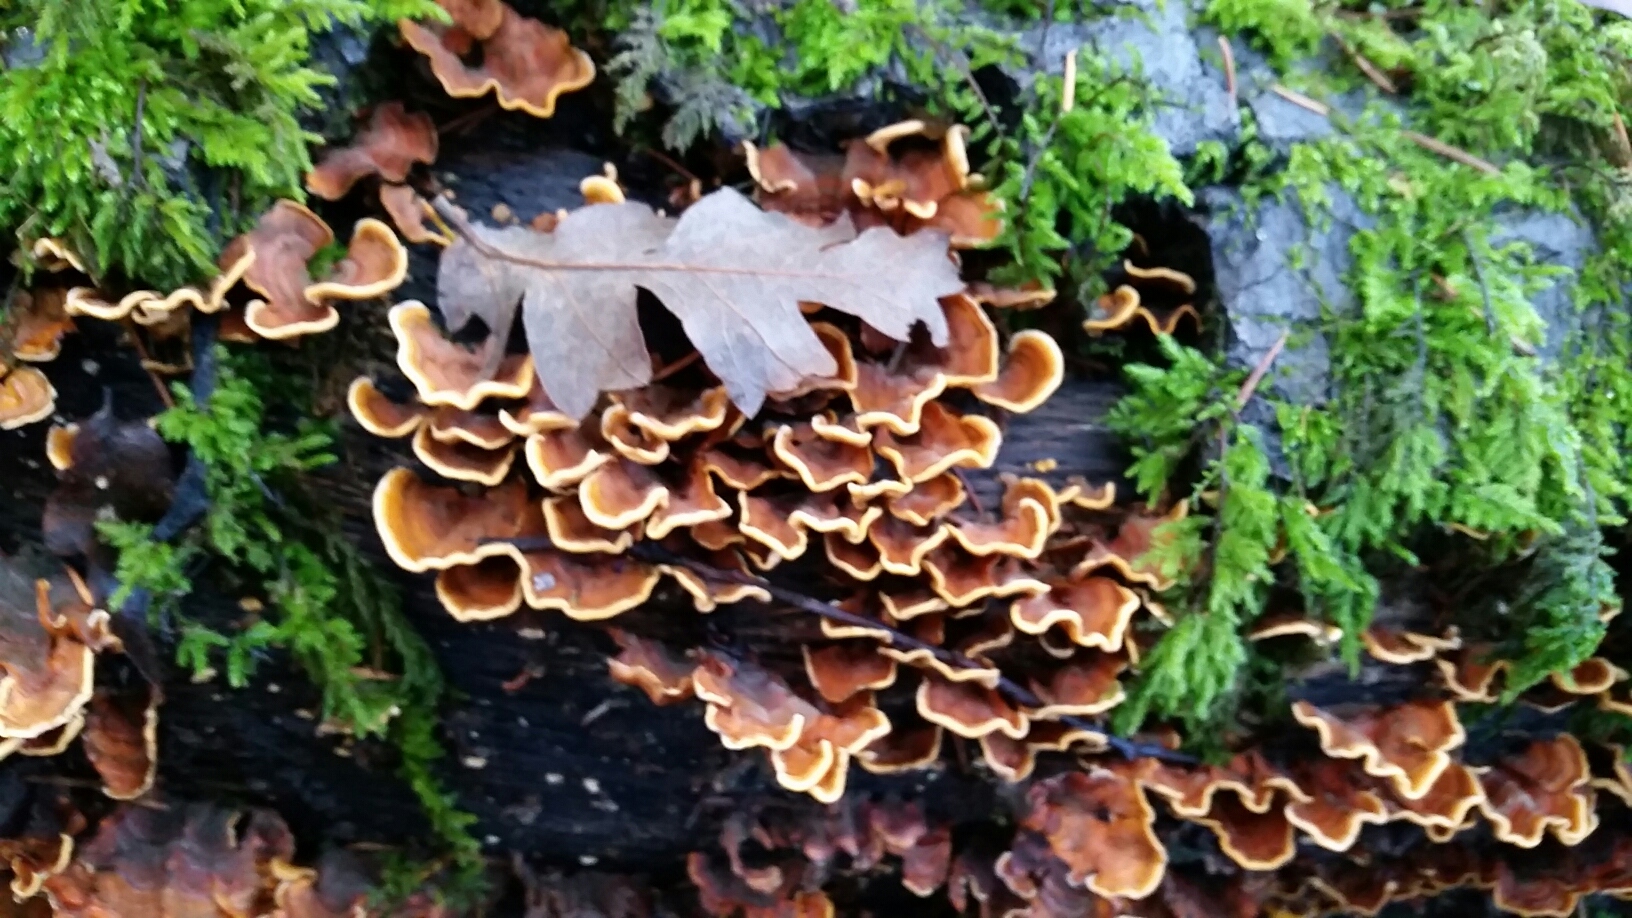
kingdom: Fungi
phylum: Basidiomycota
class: Agaricomycetes
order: Russulales
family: Stereaceae
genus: Stereum
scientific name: Stereum hirsutum
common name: Hairy curtain crust
